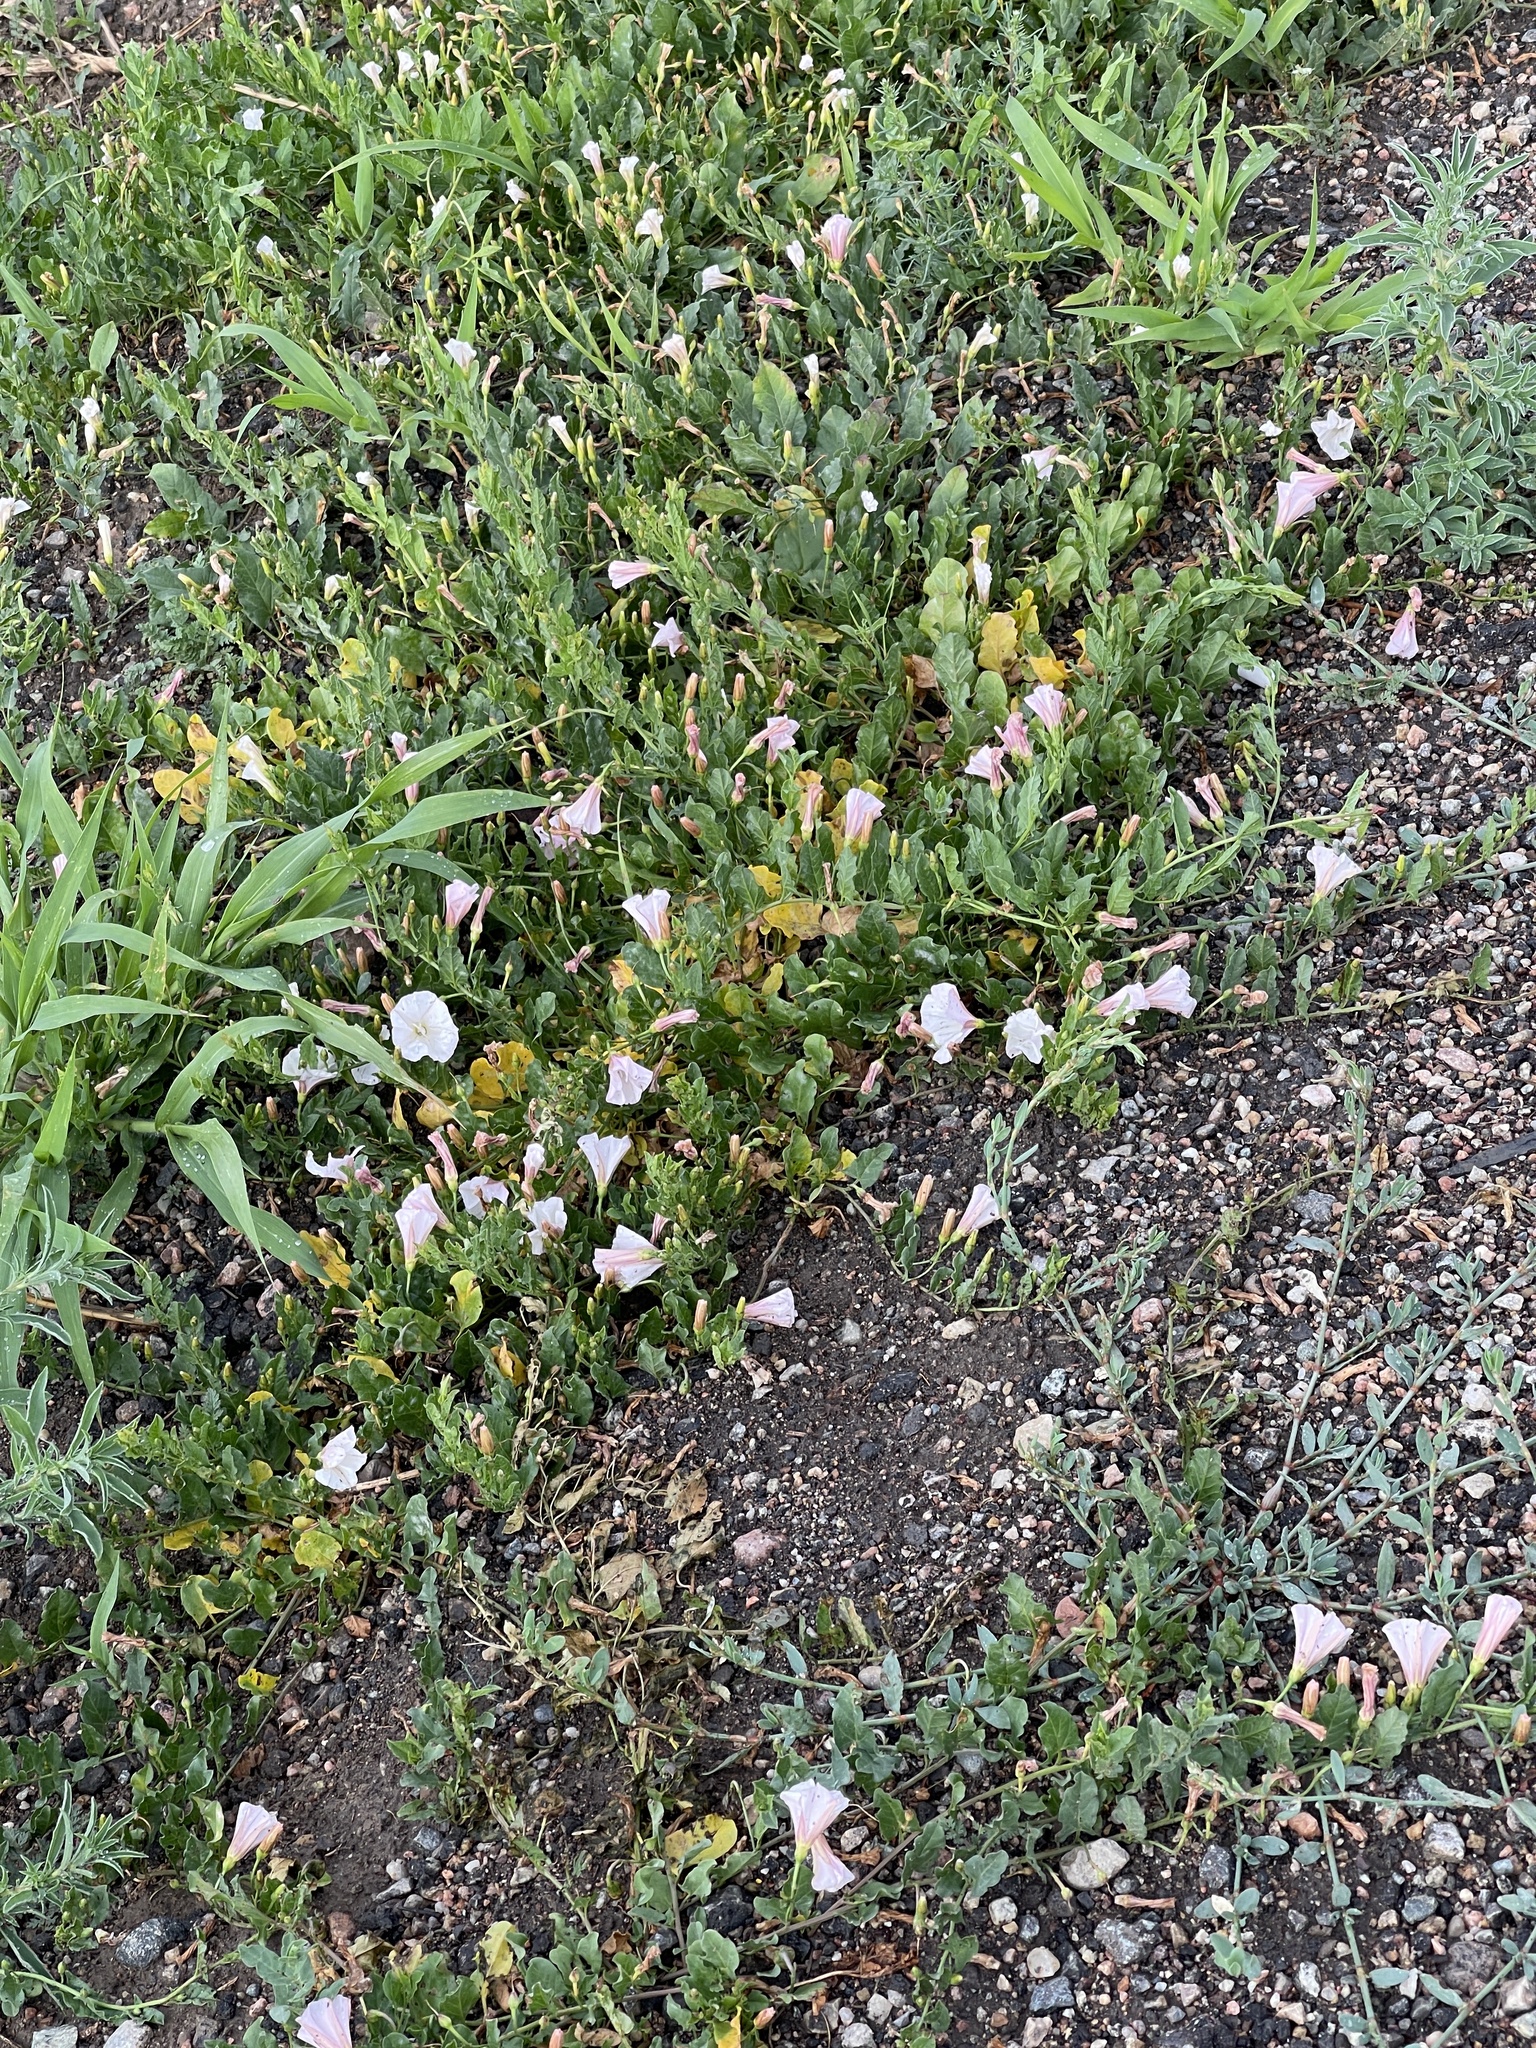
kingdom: Plantae
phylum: Tracheophyta
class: Magnoliopsida
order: Solanales
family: Convolvulaceae
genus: Convolvulus
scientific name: Convolvulus arvensis
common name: Field bindweed
